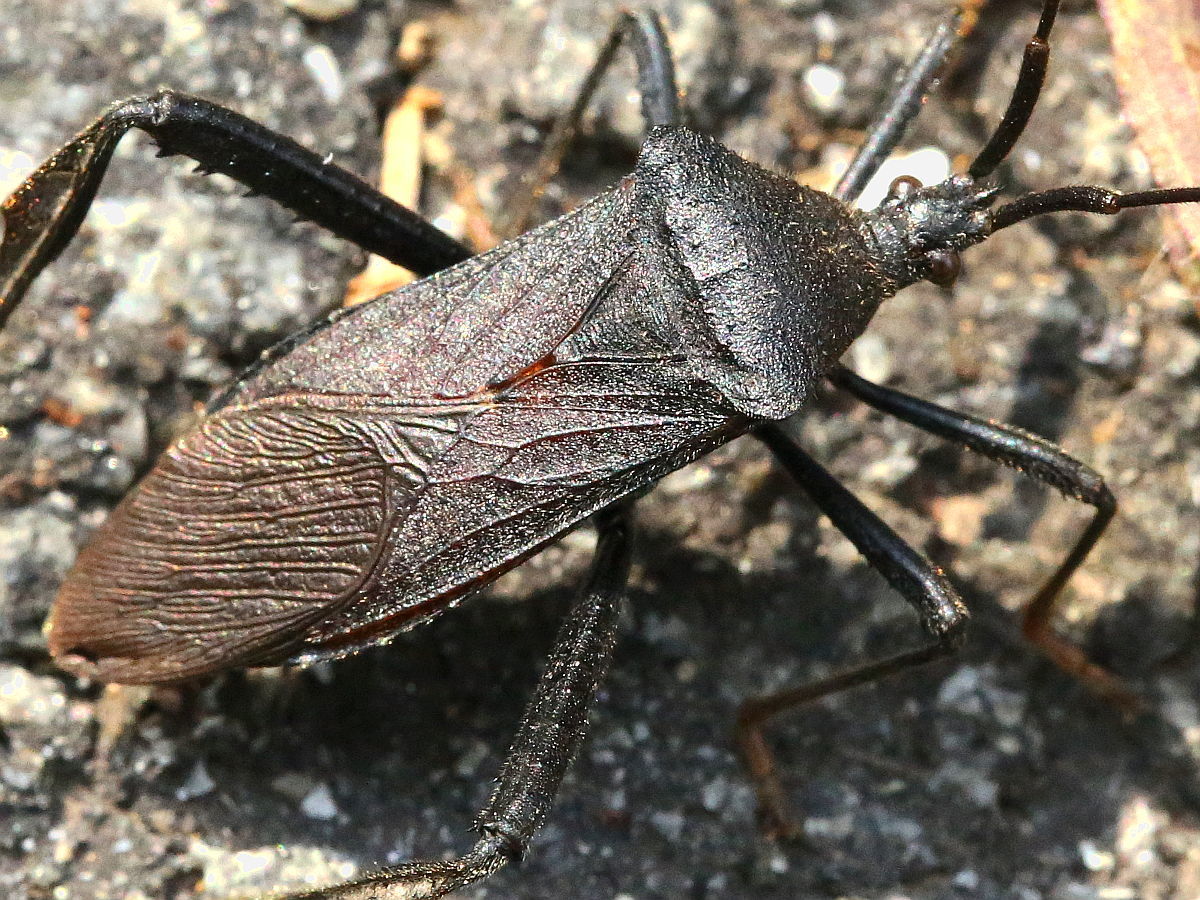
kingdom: Animalia
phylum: Arthropoda
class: Insecta
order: Hemiptera
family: Coreidae
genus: Acanthocephala
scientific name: Acanthocephala terminalis
